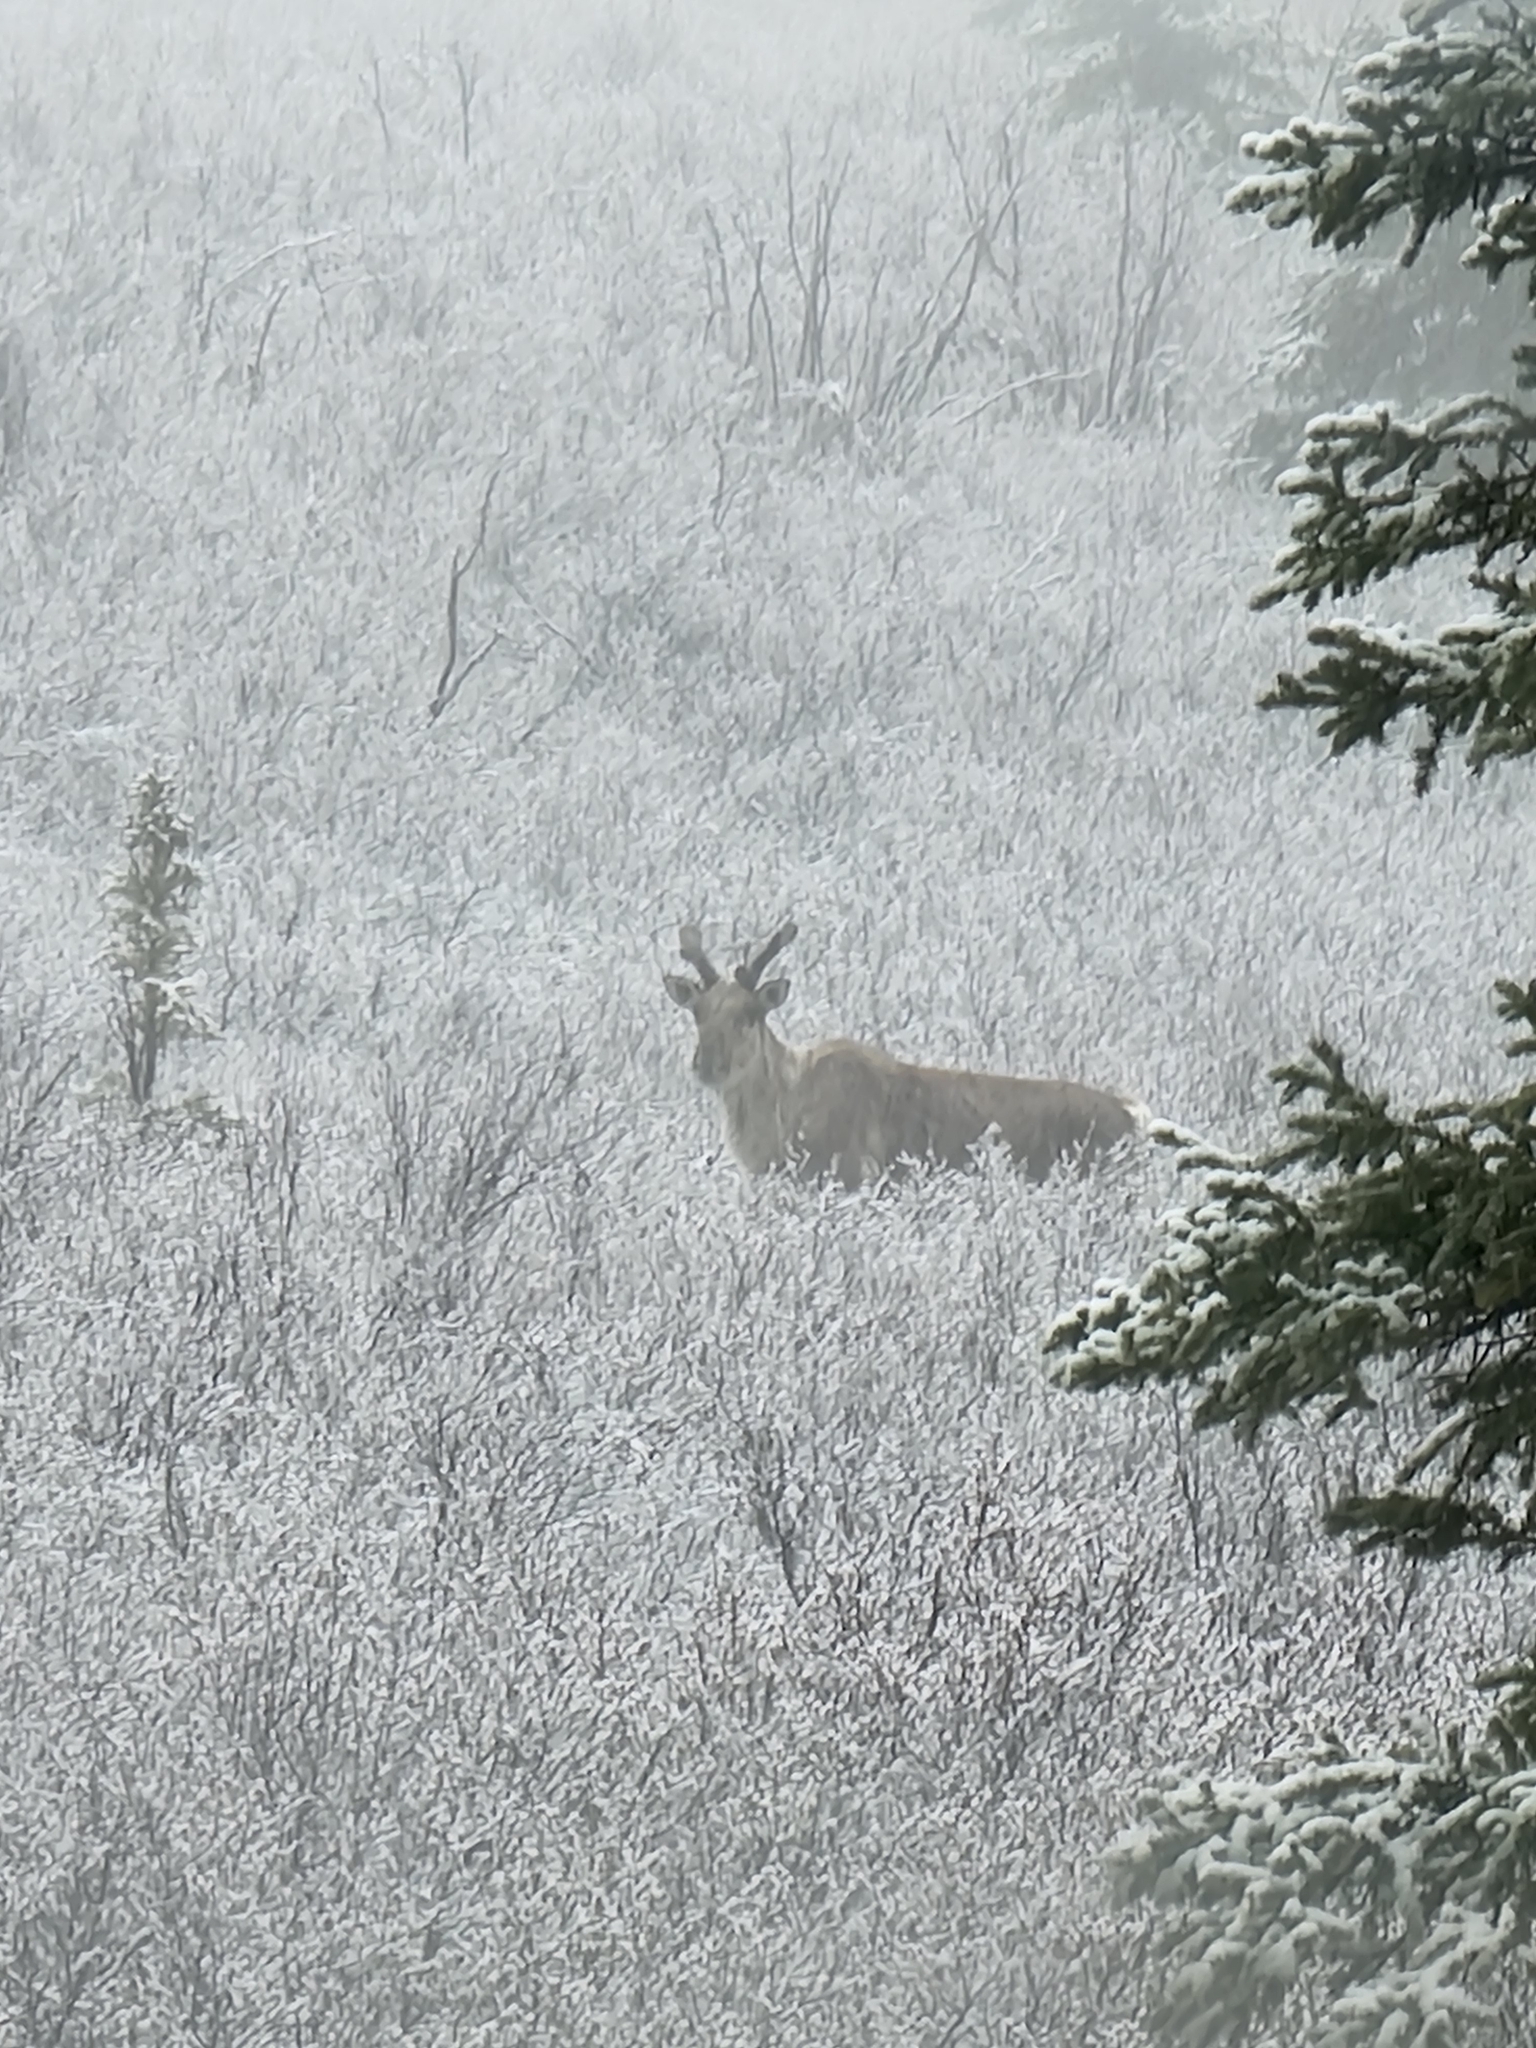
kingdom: Animalia
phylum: Chordata
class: Mammalia
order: Artiodactyla
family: Cervidae
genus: Rangifer
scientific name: Rangifer tarandus
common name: Reindeer
